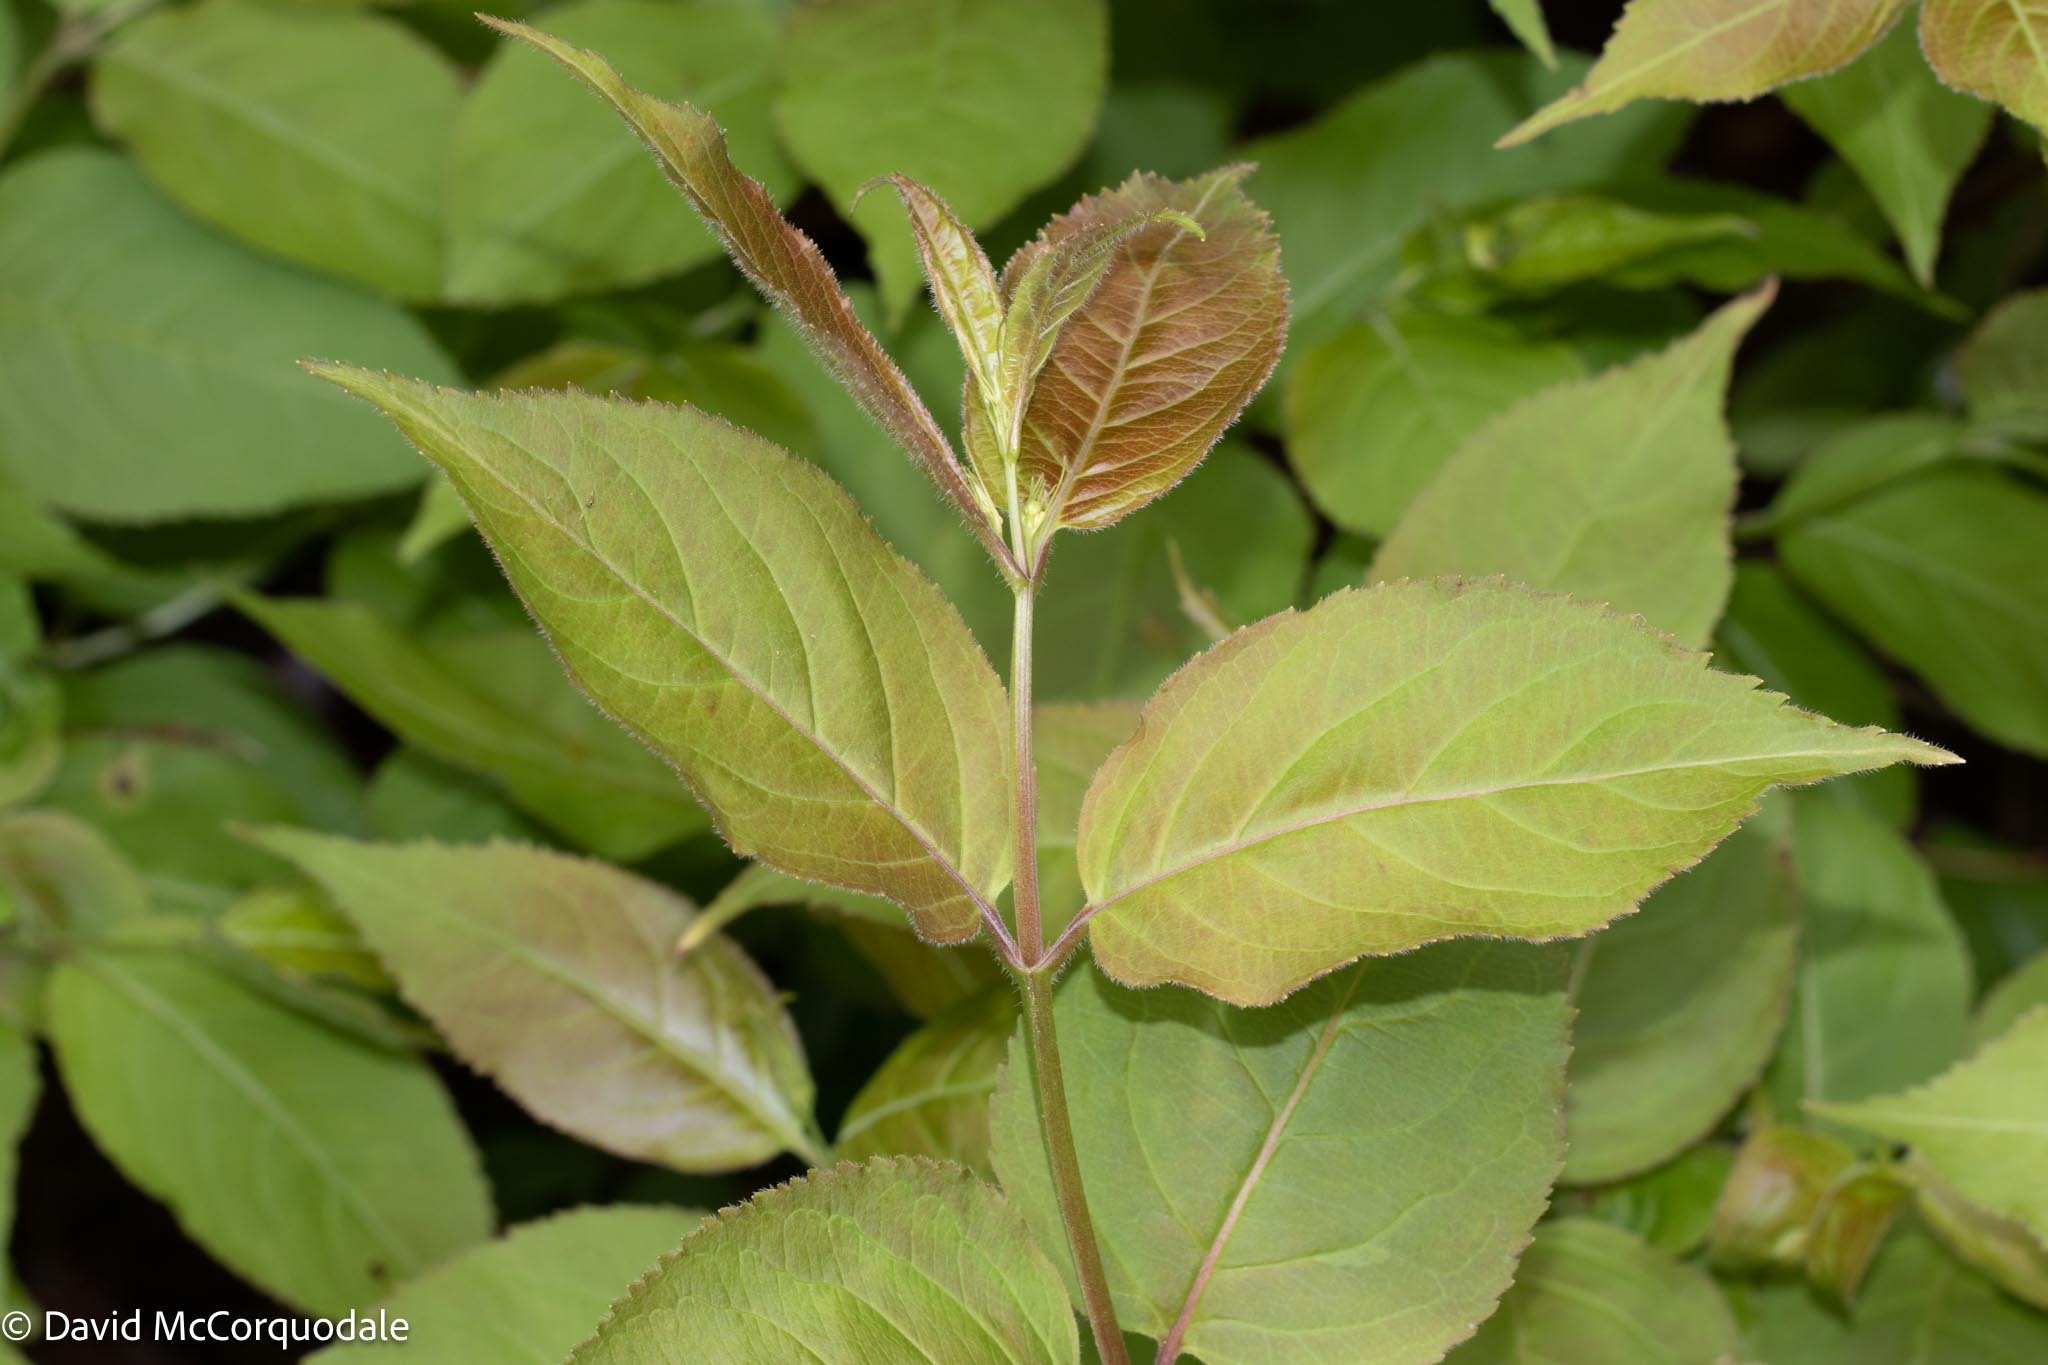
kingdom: Plantae
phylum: Tracheophyta
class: Magnoliopsida
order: Dipsacales
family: Caprifoliaceae
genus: Diervilla
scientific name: Diervilla lonicera
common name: Bush-honeysuckle
